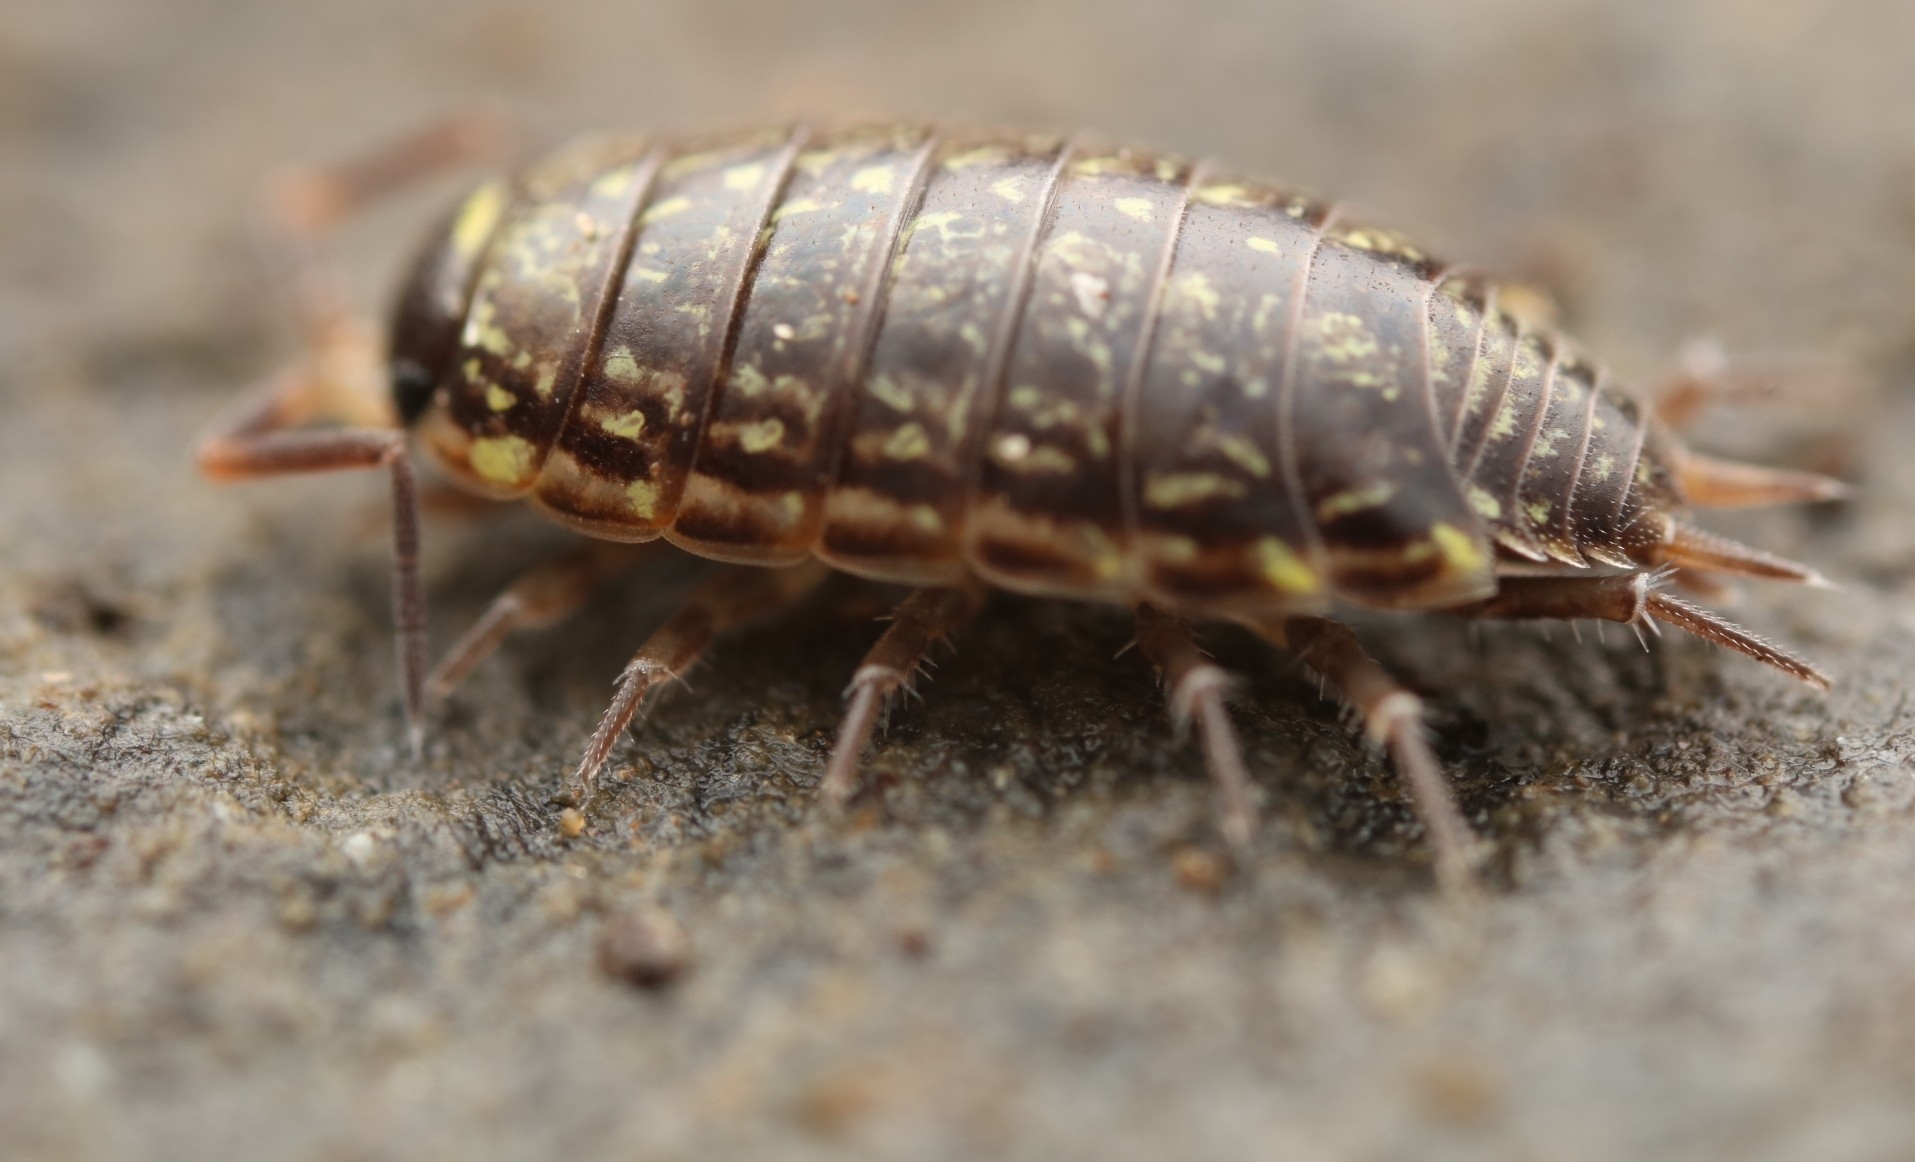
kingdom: Animalia
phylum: Arthropoda
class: Malacostraca
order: Isopoda
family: Philosciidae
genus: Philoscia
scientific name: Philoscia muscorum
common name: Common striped woodlouse
